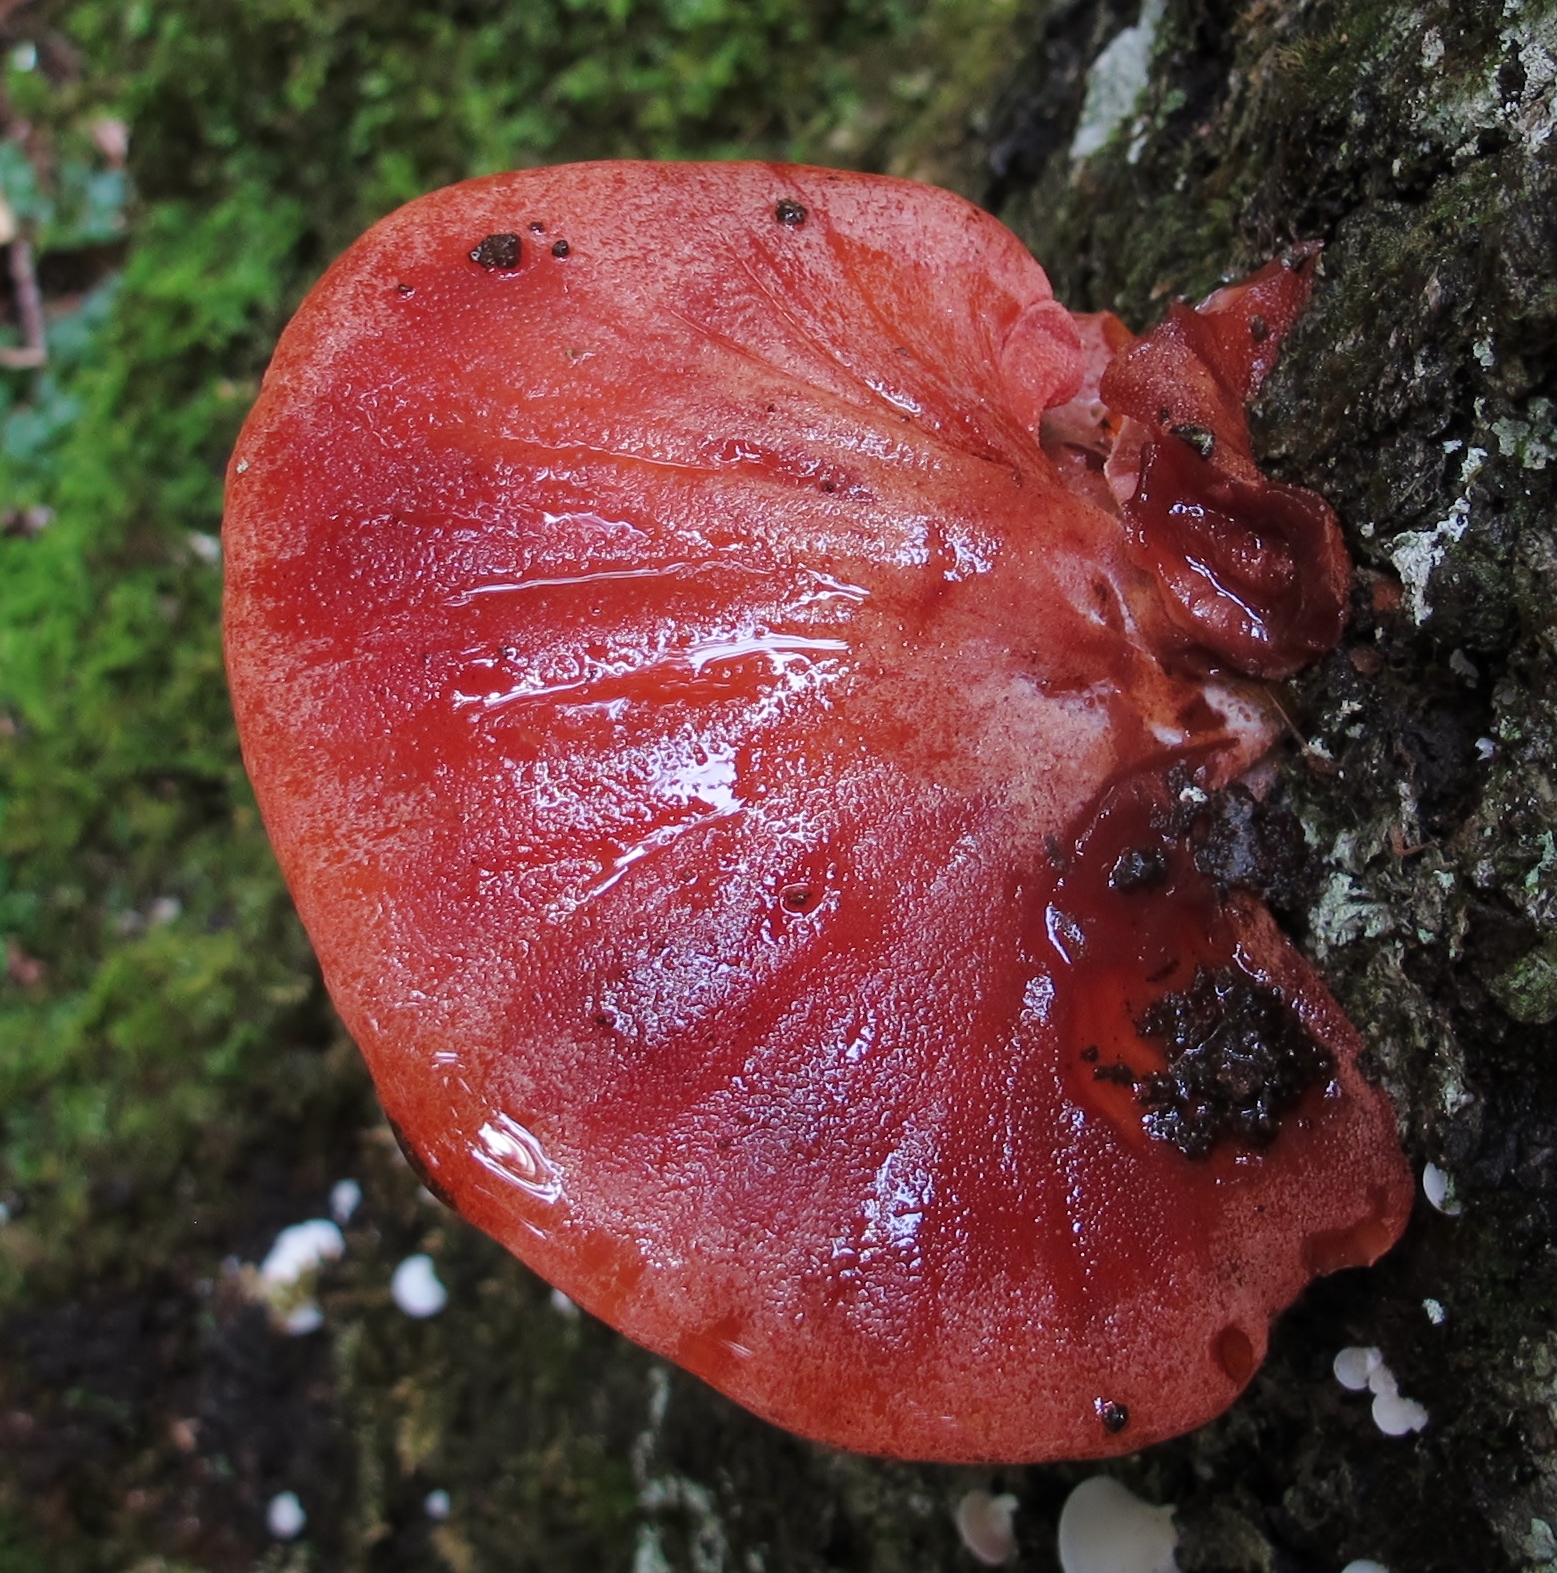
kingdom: Fungi
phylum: Basidiomycota
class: Agaricomycetes
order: Agaricales
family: Fistulinaceae
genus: Fistulina
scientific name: Fistulina hepatica
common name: Beef-steak fungus
